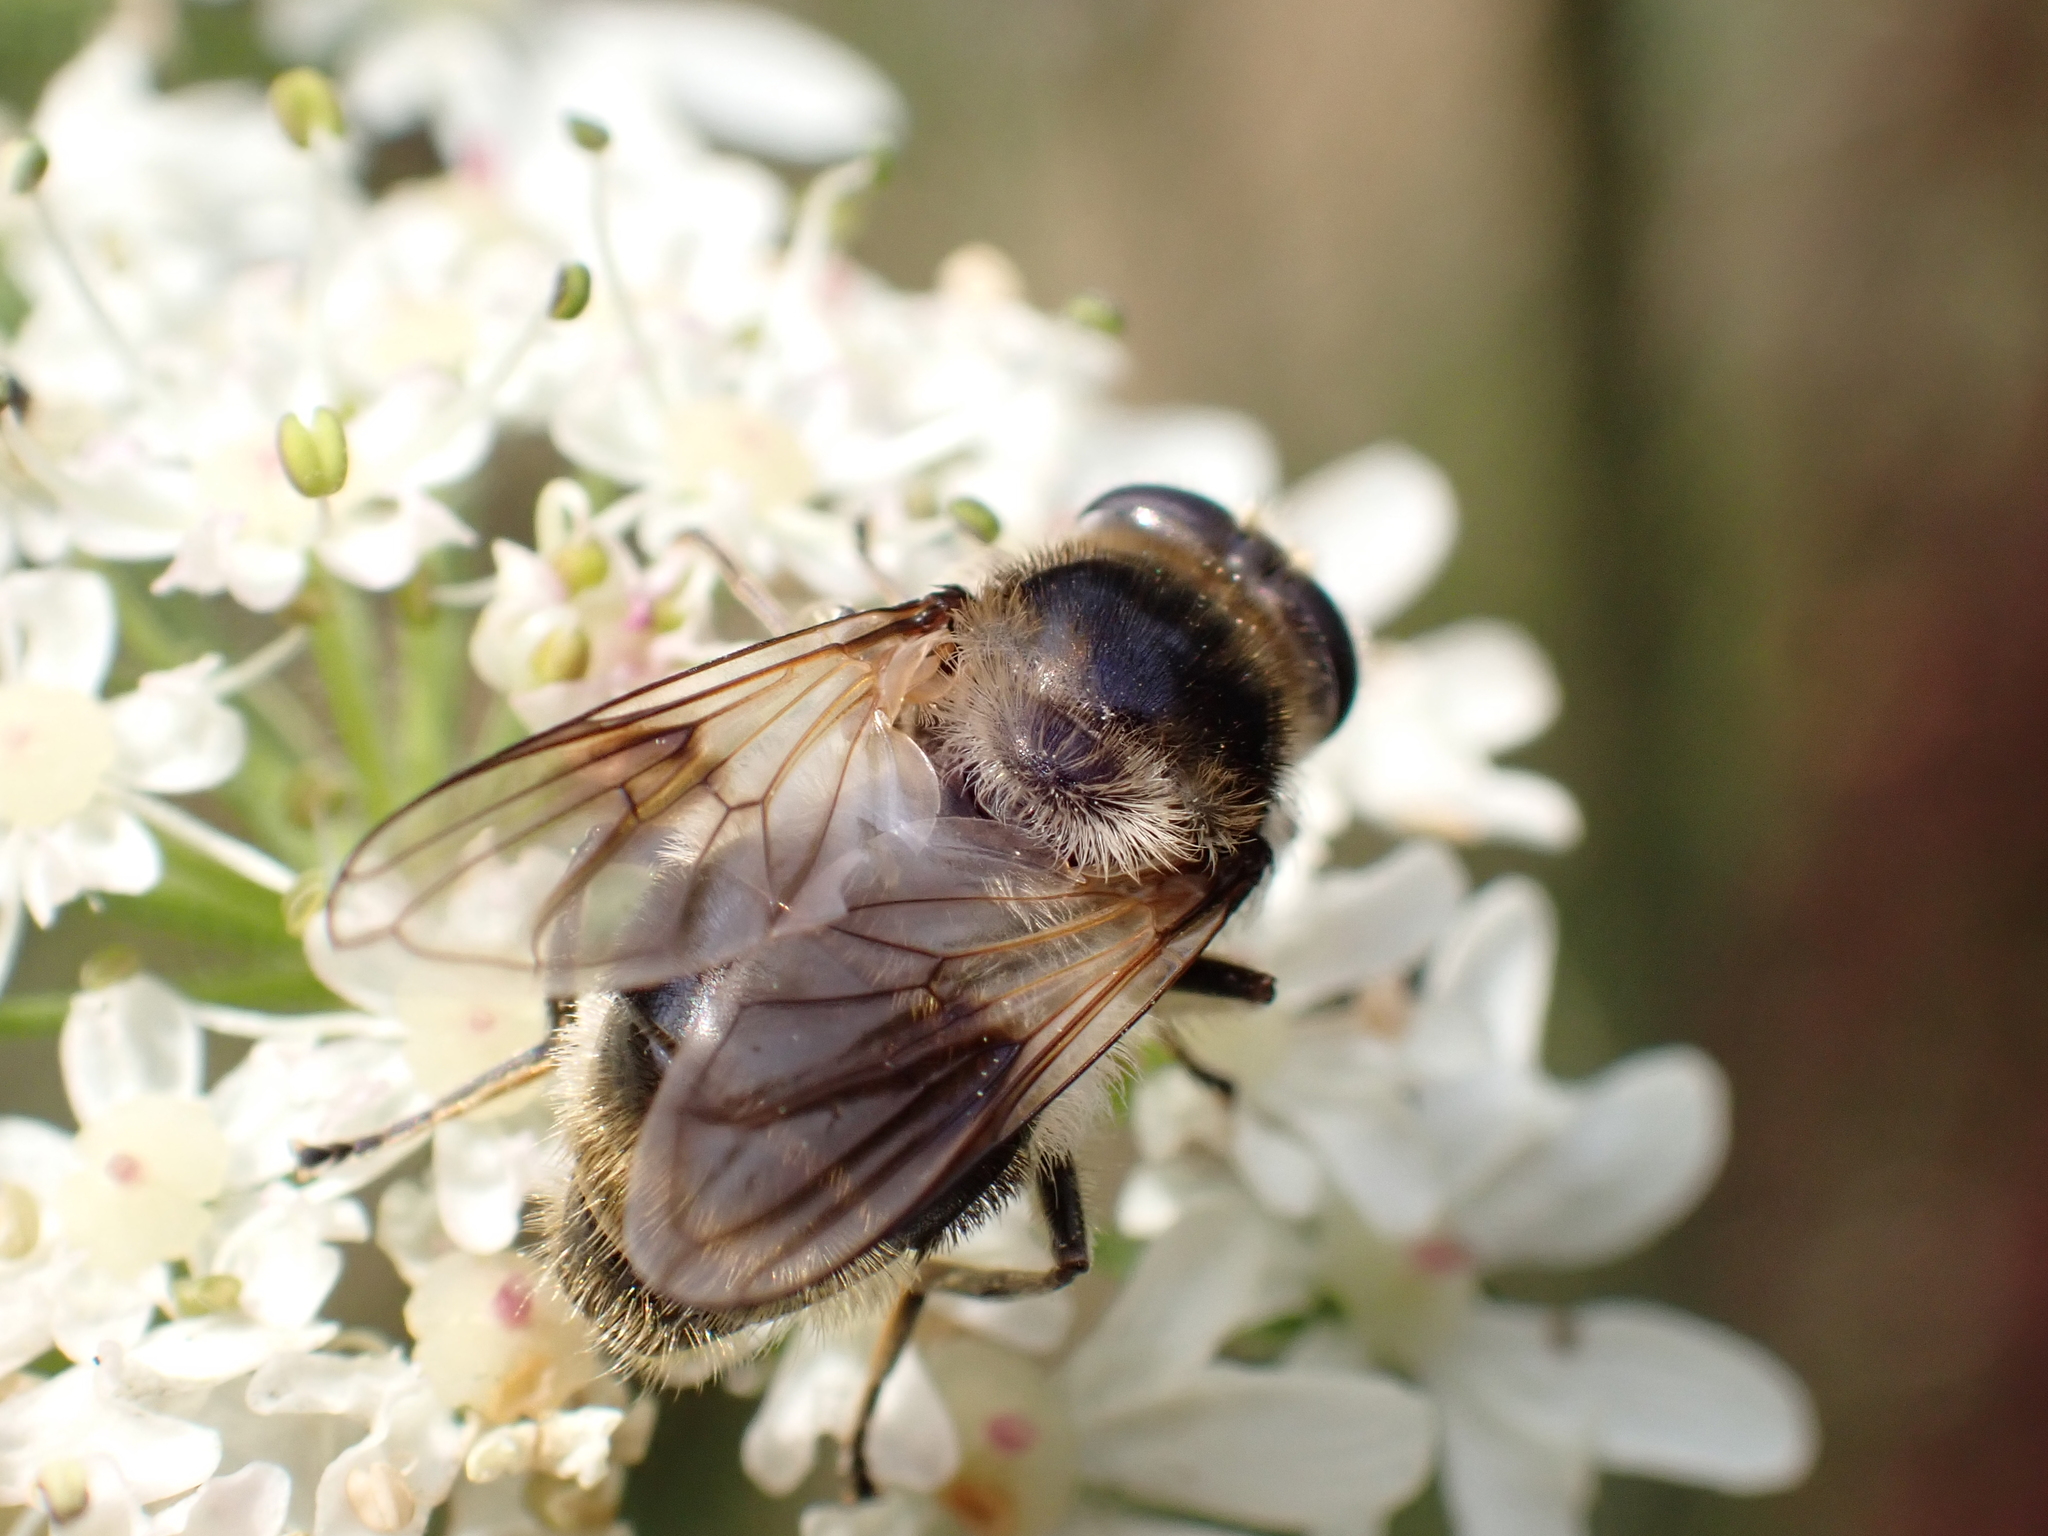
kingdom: Animalia
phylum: Arthropoda
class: Insecta
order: Diptera
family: Syrphidae
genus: Cheilosia
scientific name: Cheilosia illustrata
